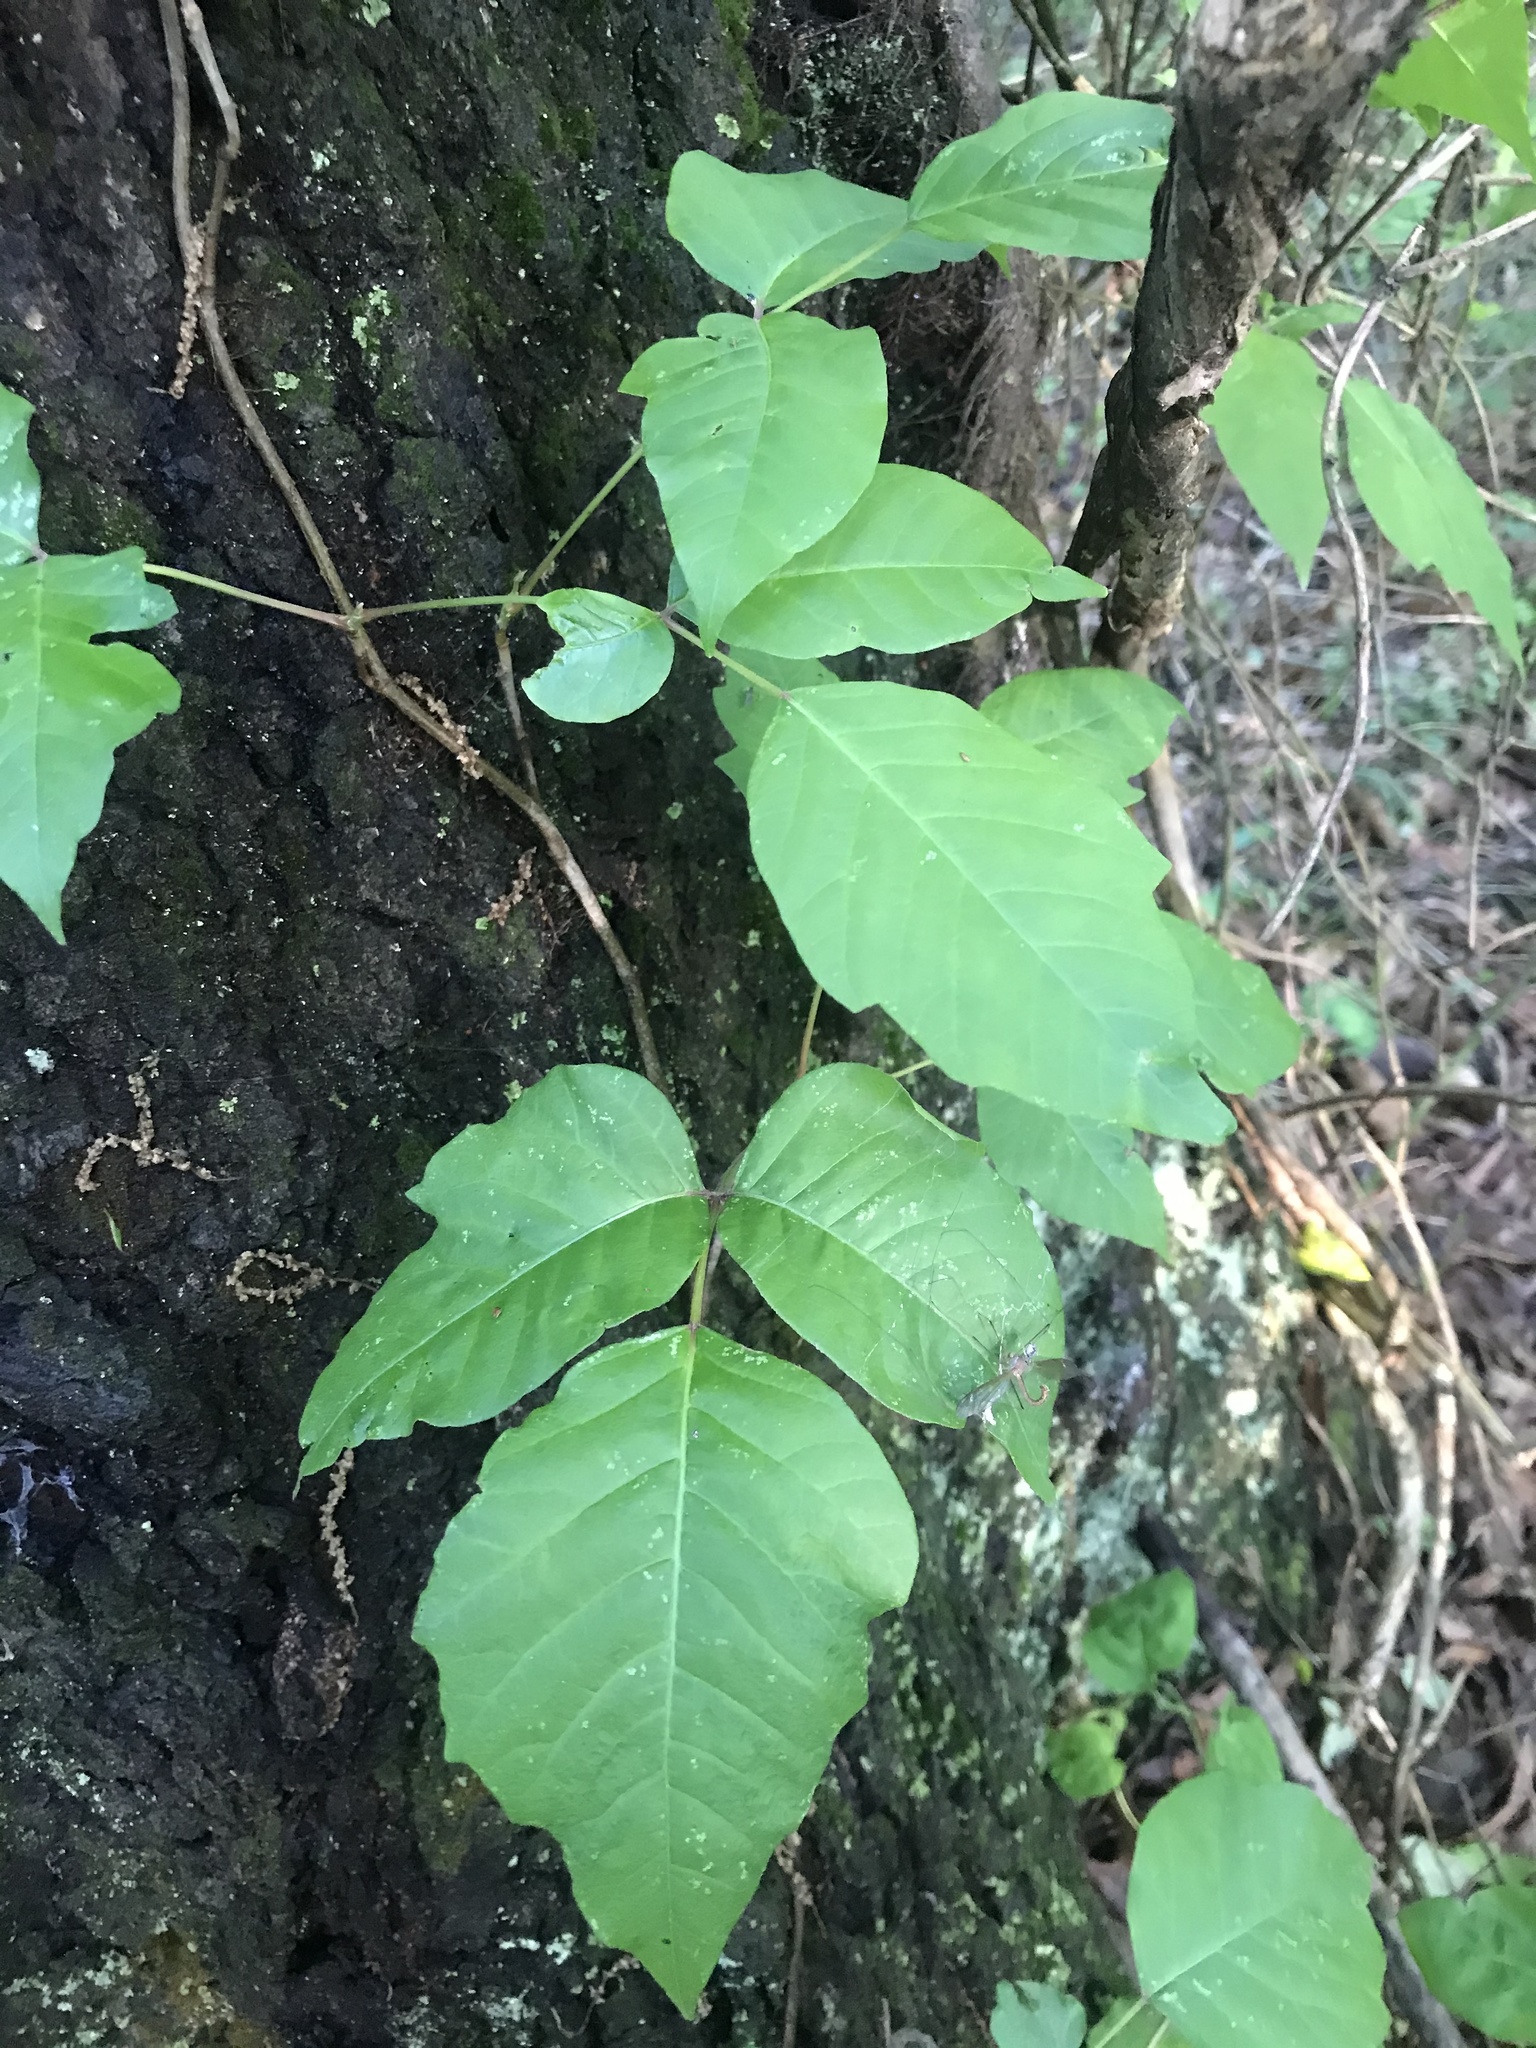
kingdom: Plantae
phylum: Tracheophyta
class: Magnoliopsida
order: Sapindales
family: Anacardiaceae
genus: Toxicodendron
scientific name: Toxicodendron radicans
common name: Poison ivy
